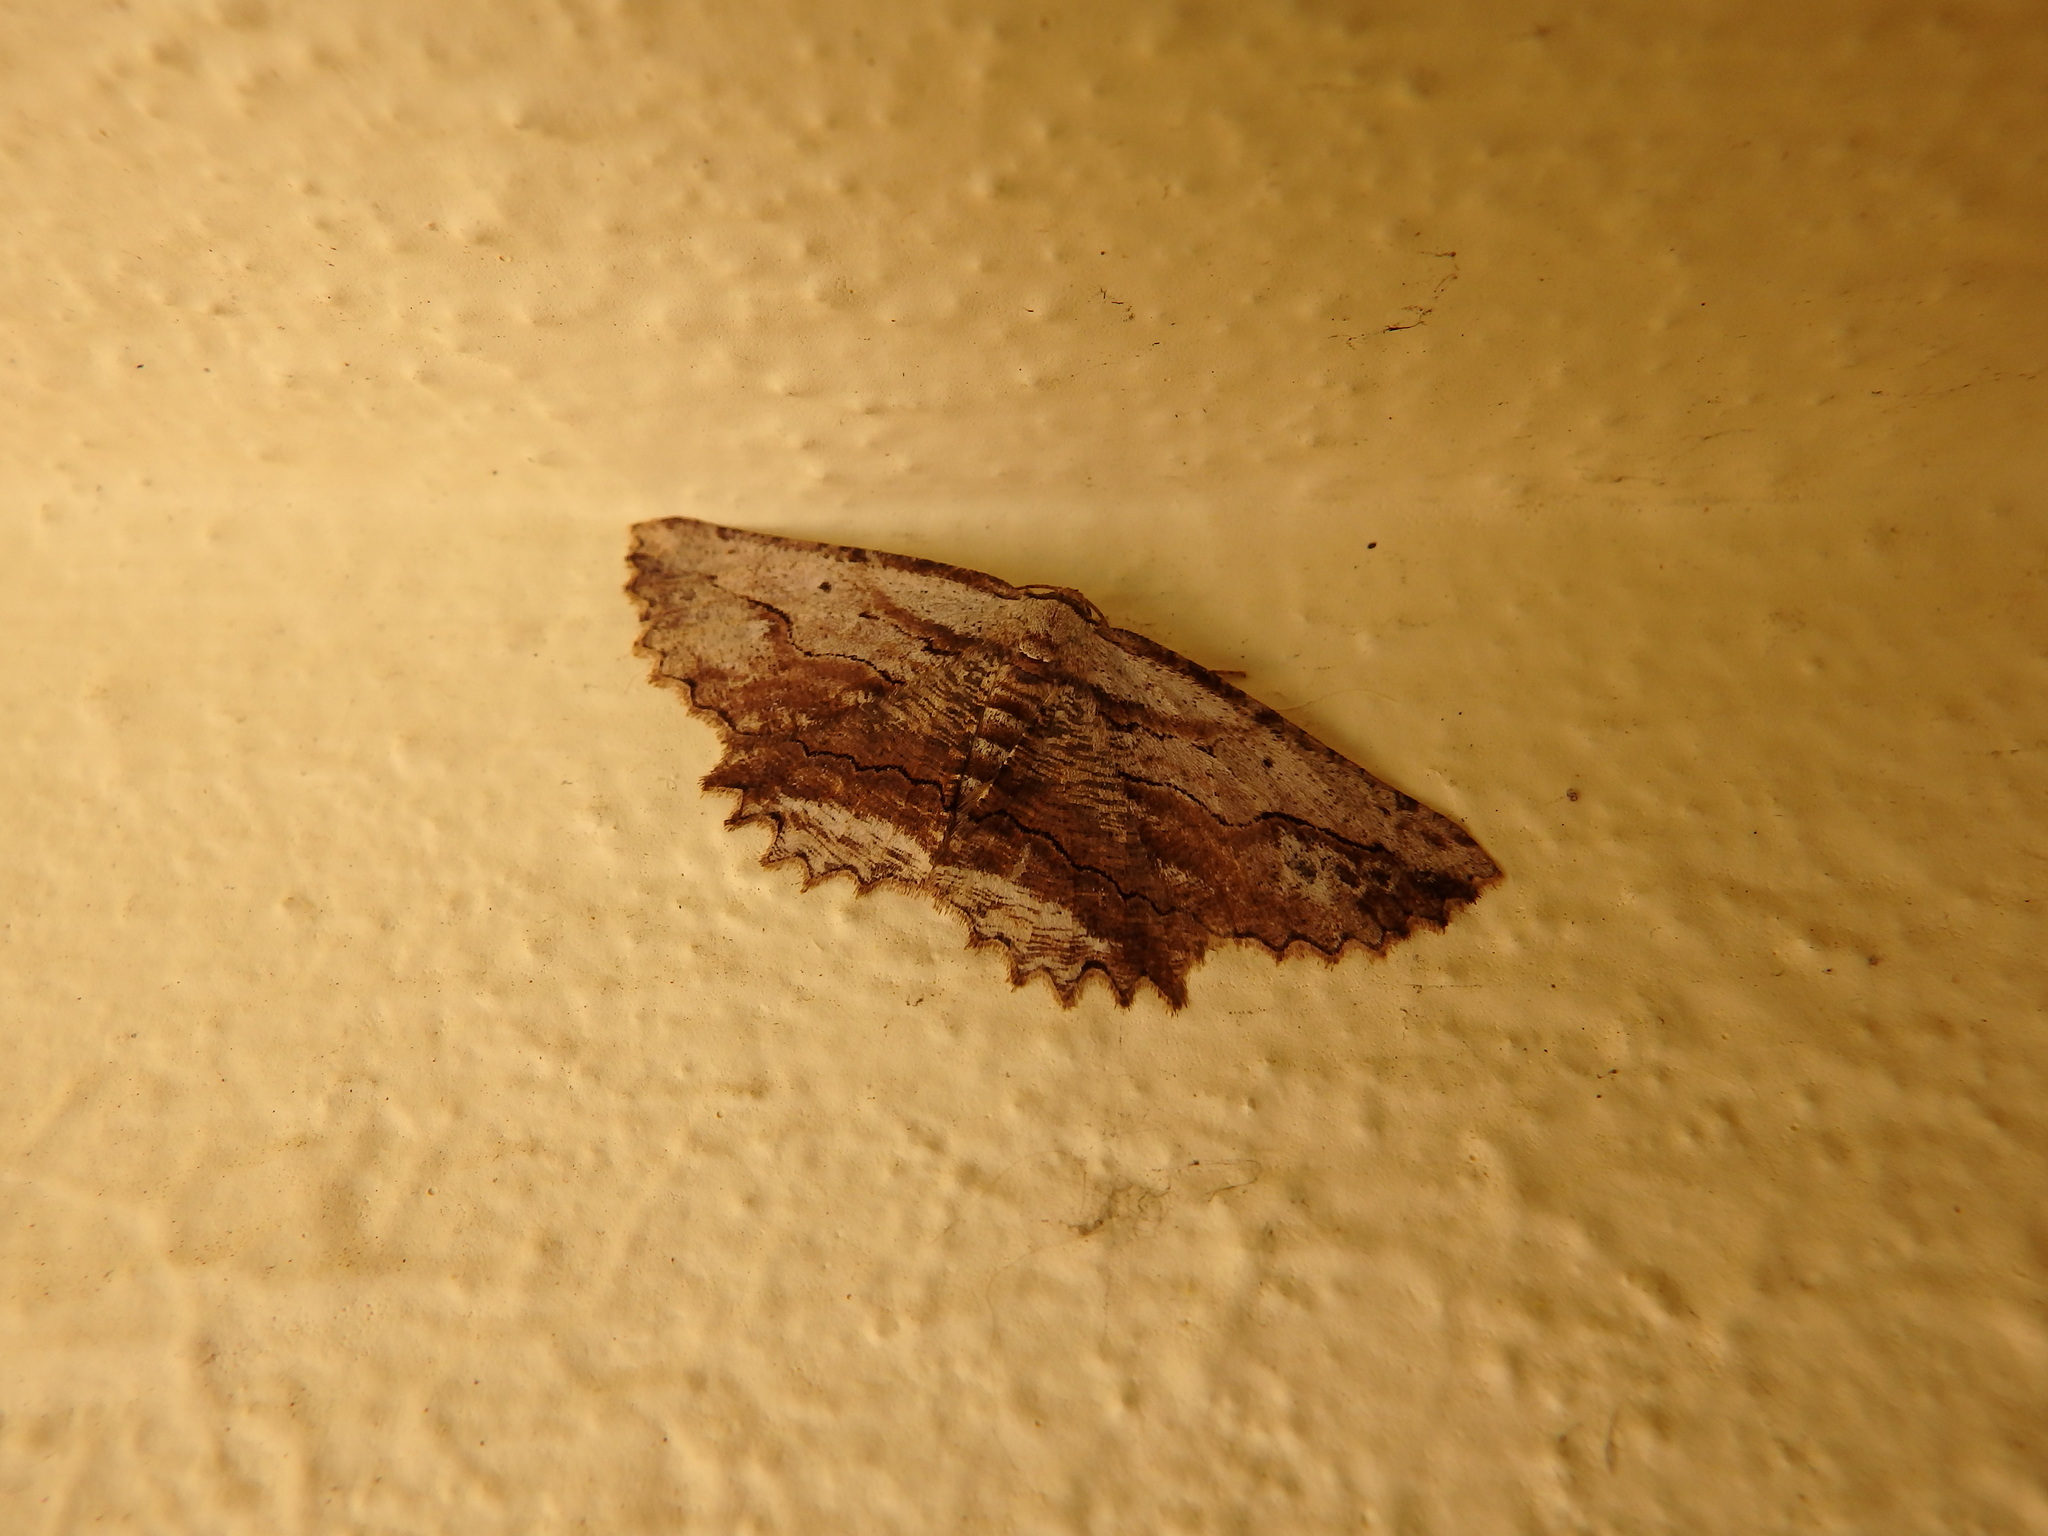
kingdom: Animalia
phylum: Arthropoda
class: Insecta
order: Lepidoptera
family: Geometridae
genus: Menophra
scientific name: Menophra abruptaria
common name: Waved umber
